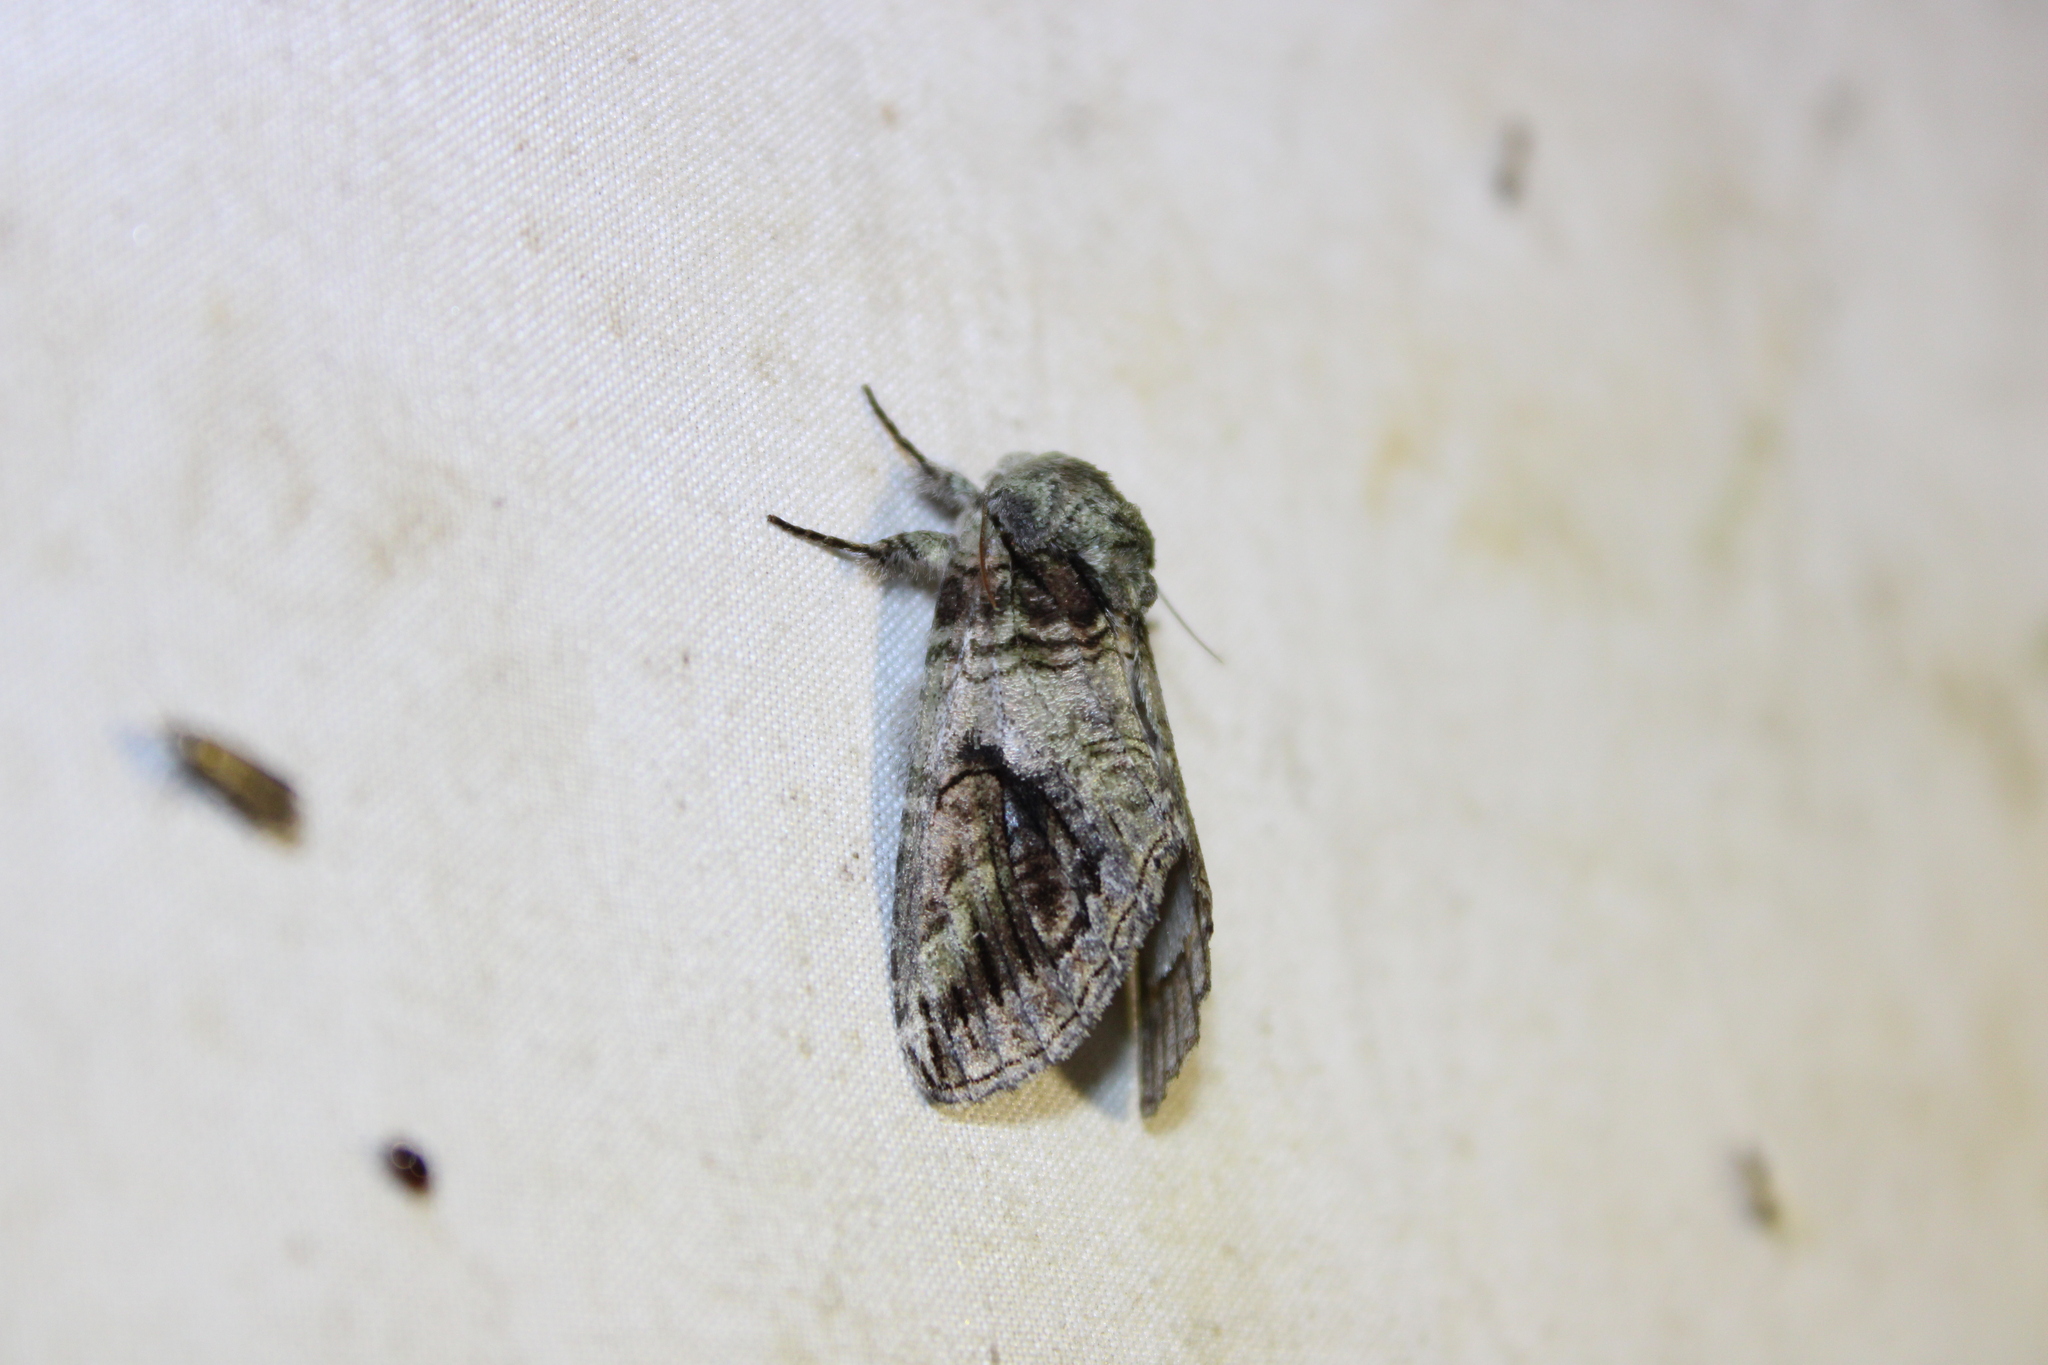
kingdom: Animalia
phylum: Arthropoda
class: Insecta
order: Lepidoptera
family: Notodontidae
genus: Heterocampa
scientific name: Heterocampa obliqua
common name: Oblique heterocampa
